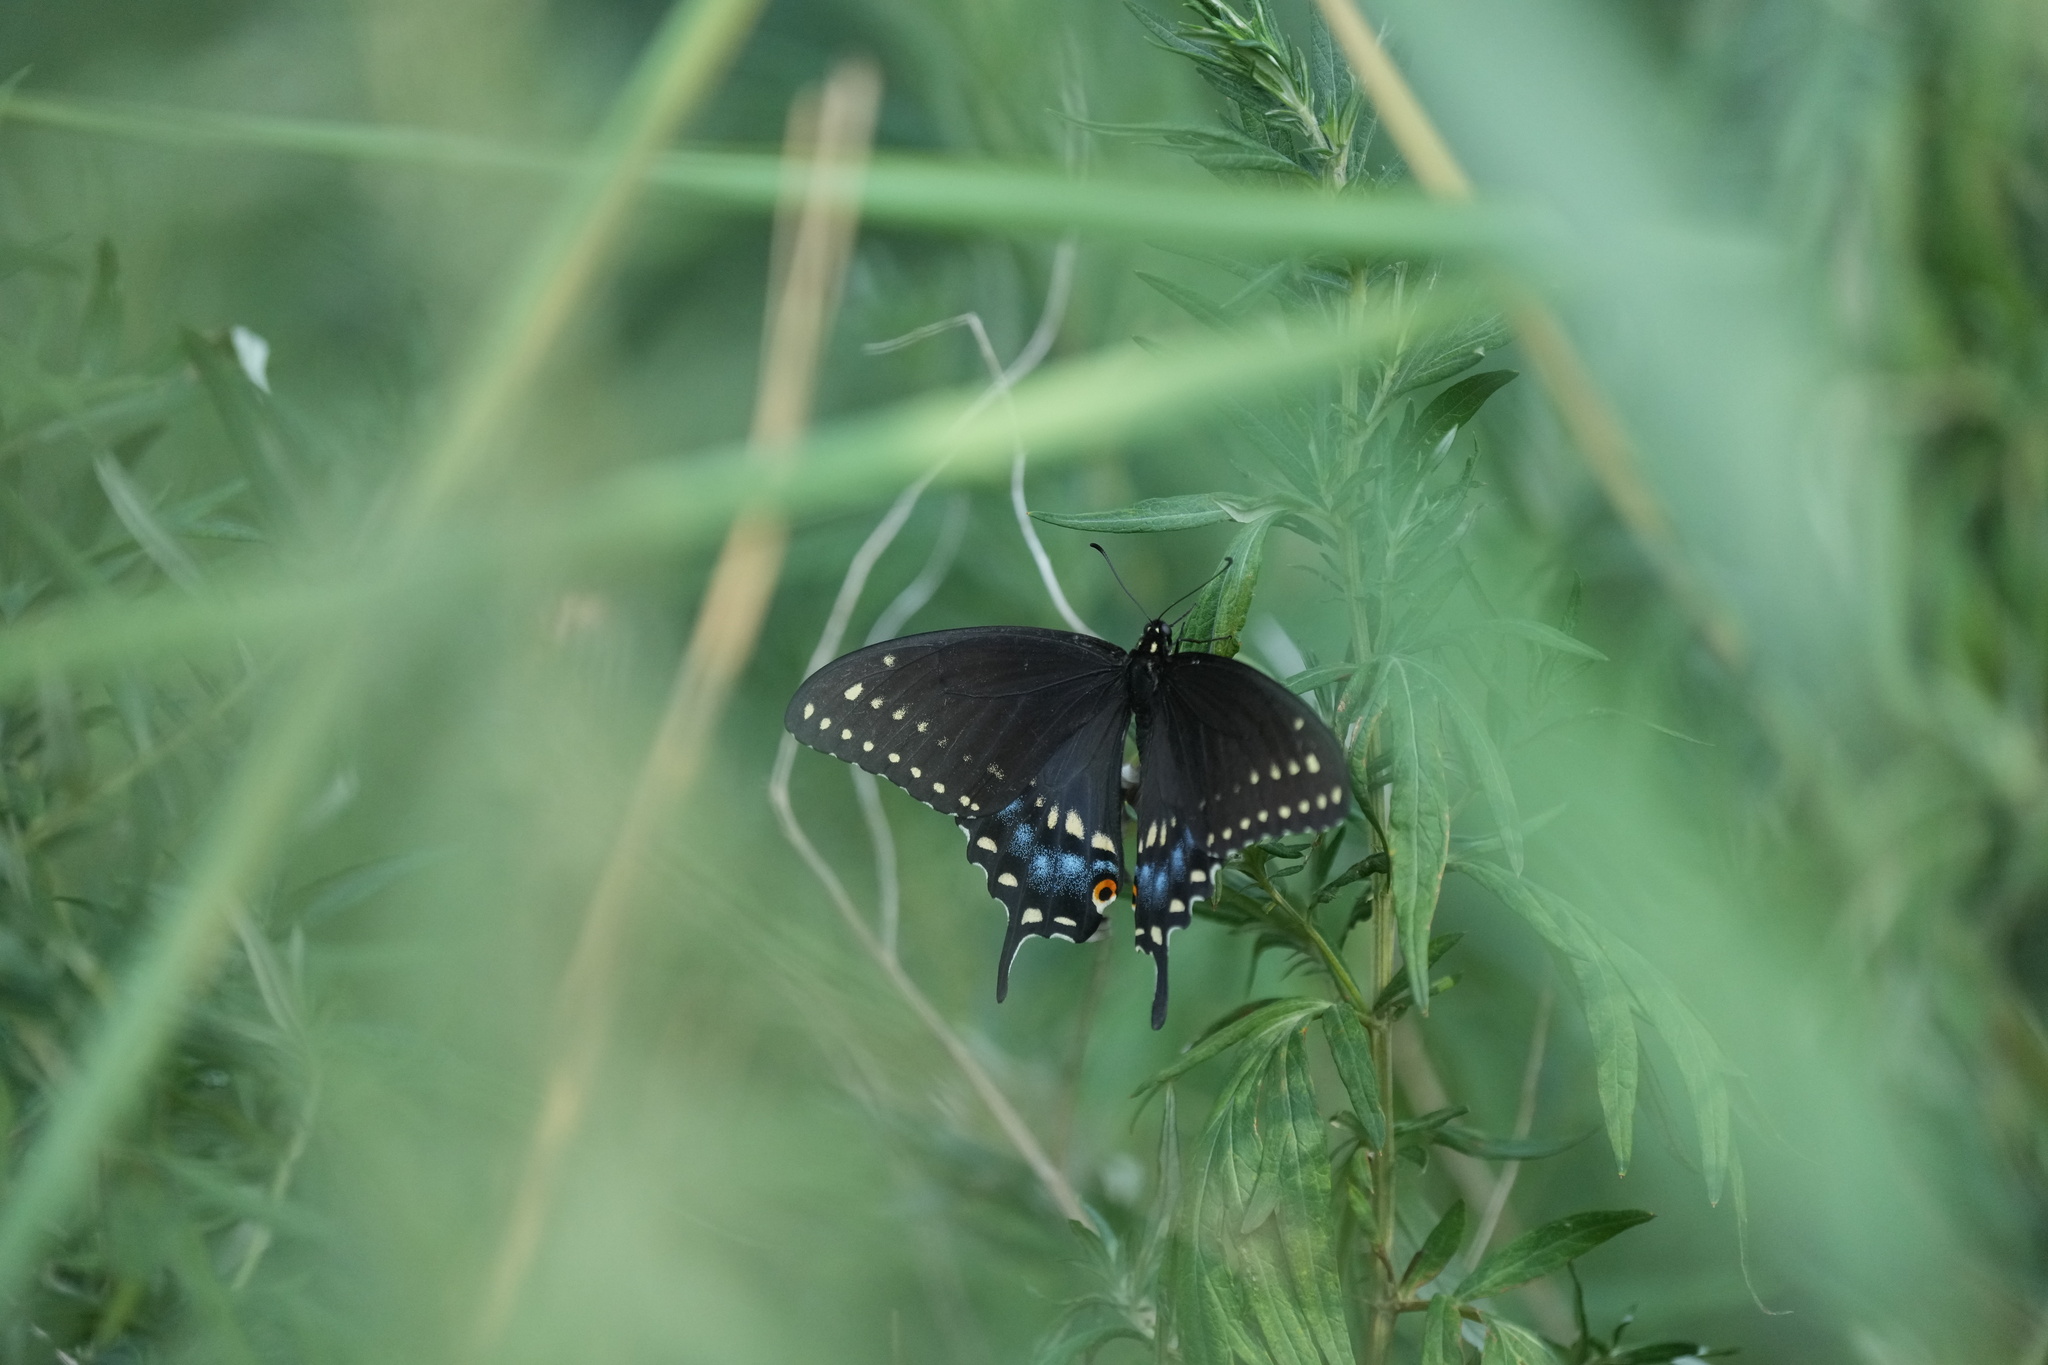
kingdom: Animalia
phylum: Arthropoda
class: Insecta
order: Lepidoptera
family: Papilionidae
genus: Papilio
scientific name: Papilio polyxenes
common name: Black swallowtail
